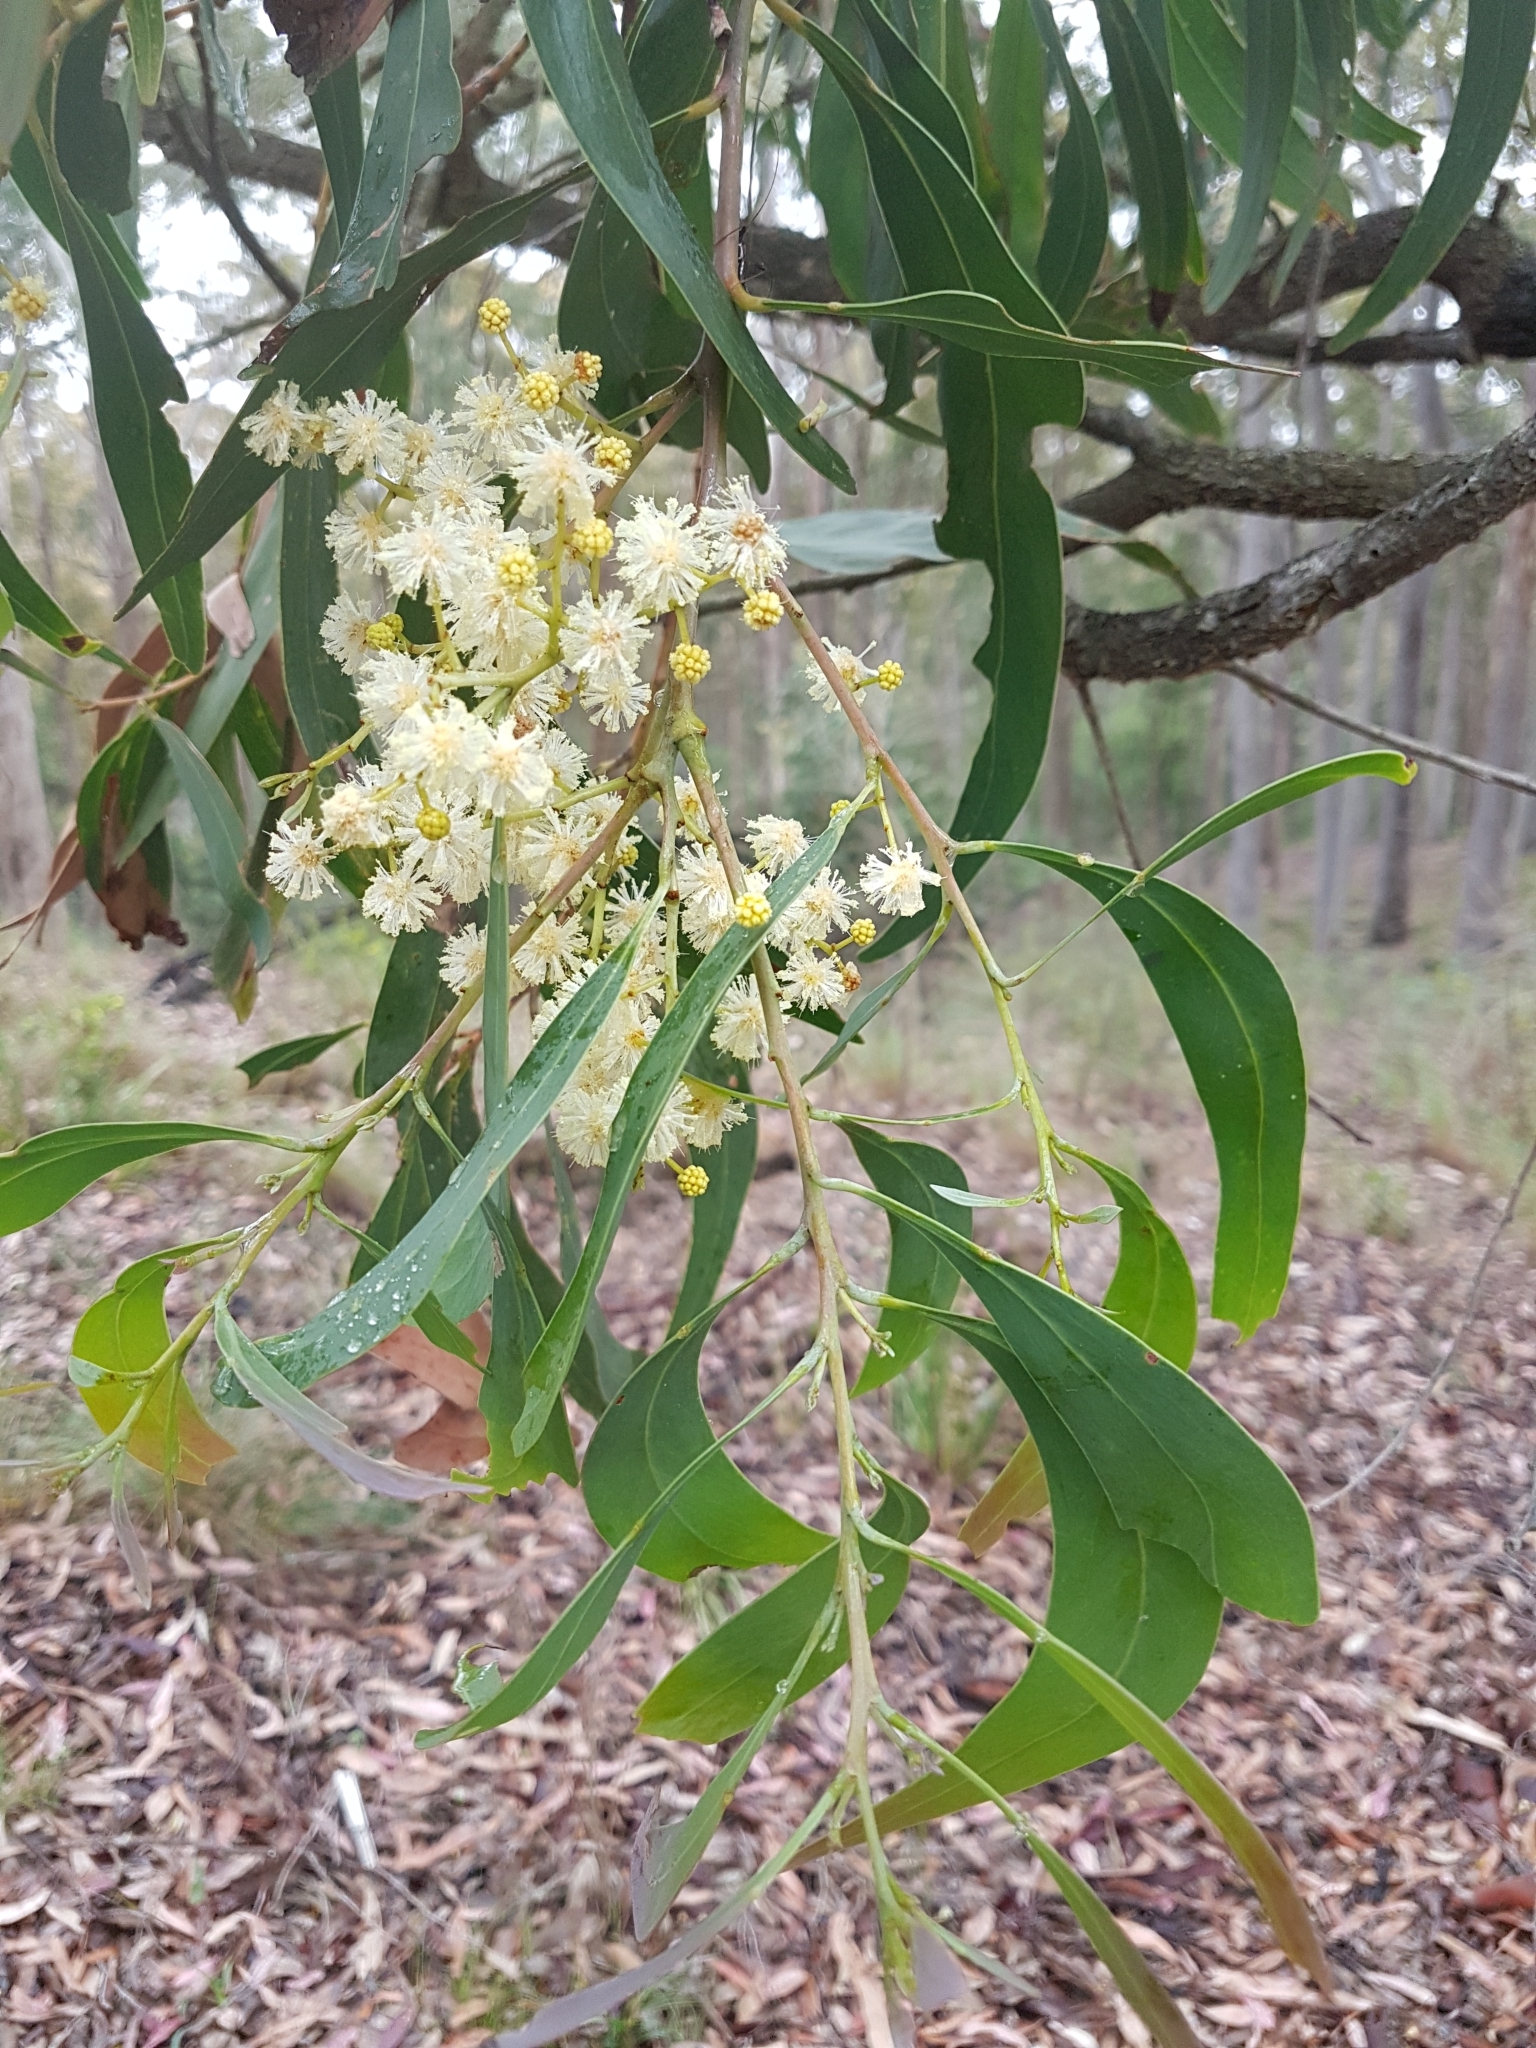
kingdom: Plantae
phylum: Tracheophyta
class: Magnoliopsida
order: Fabales
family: Fabaceae
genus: Acacia
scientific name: Acacia falciformis
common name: Tanning wattle
